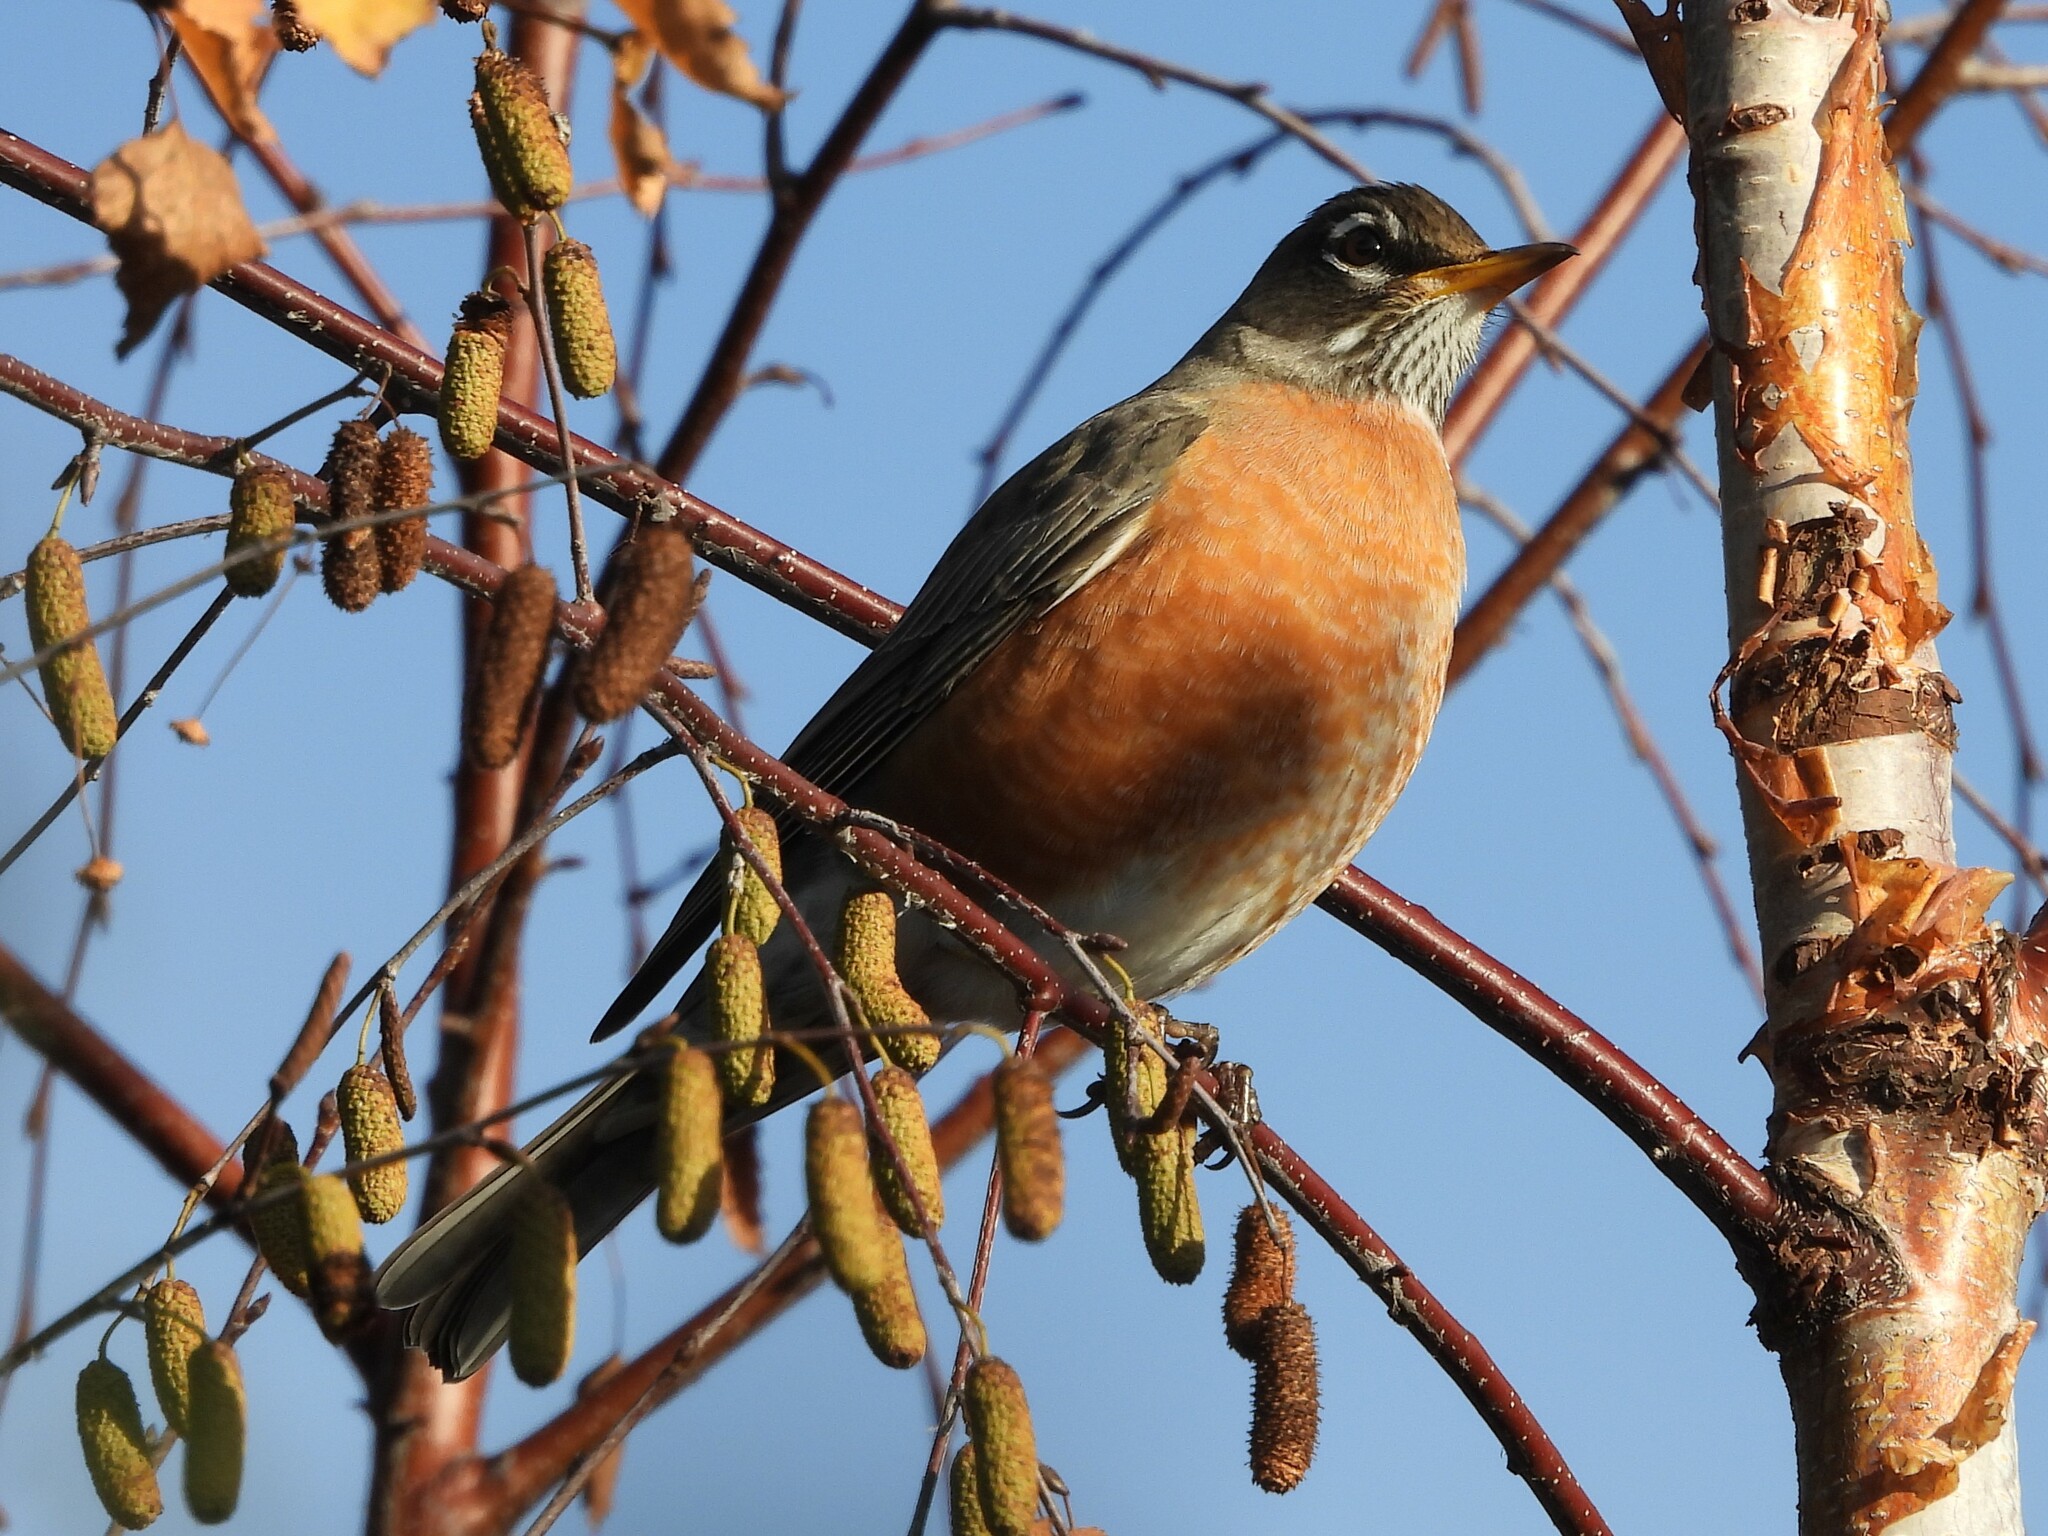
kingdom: Animalia
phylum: Chordata
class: Aves
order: Passeriformes
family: Turdidae
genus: Turdus
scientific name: Turdus migratorius
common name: American robin
